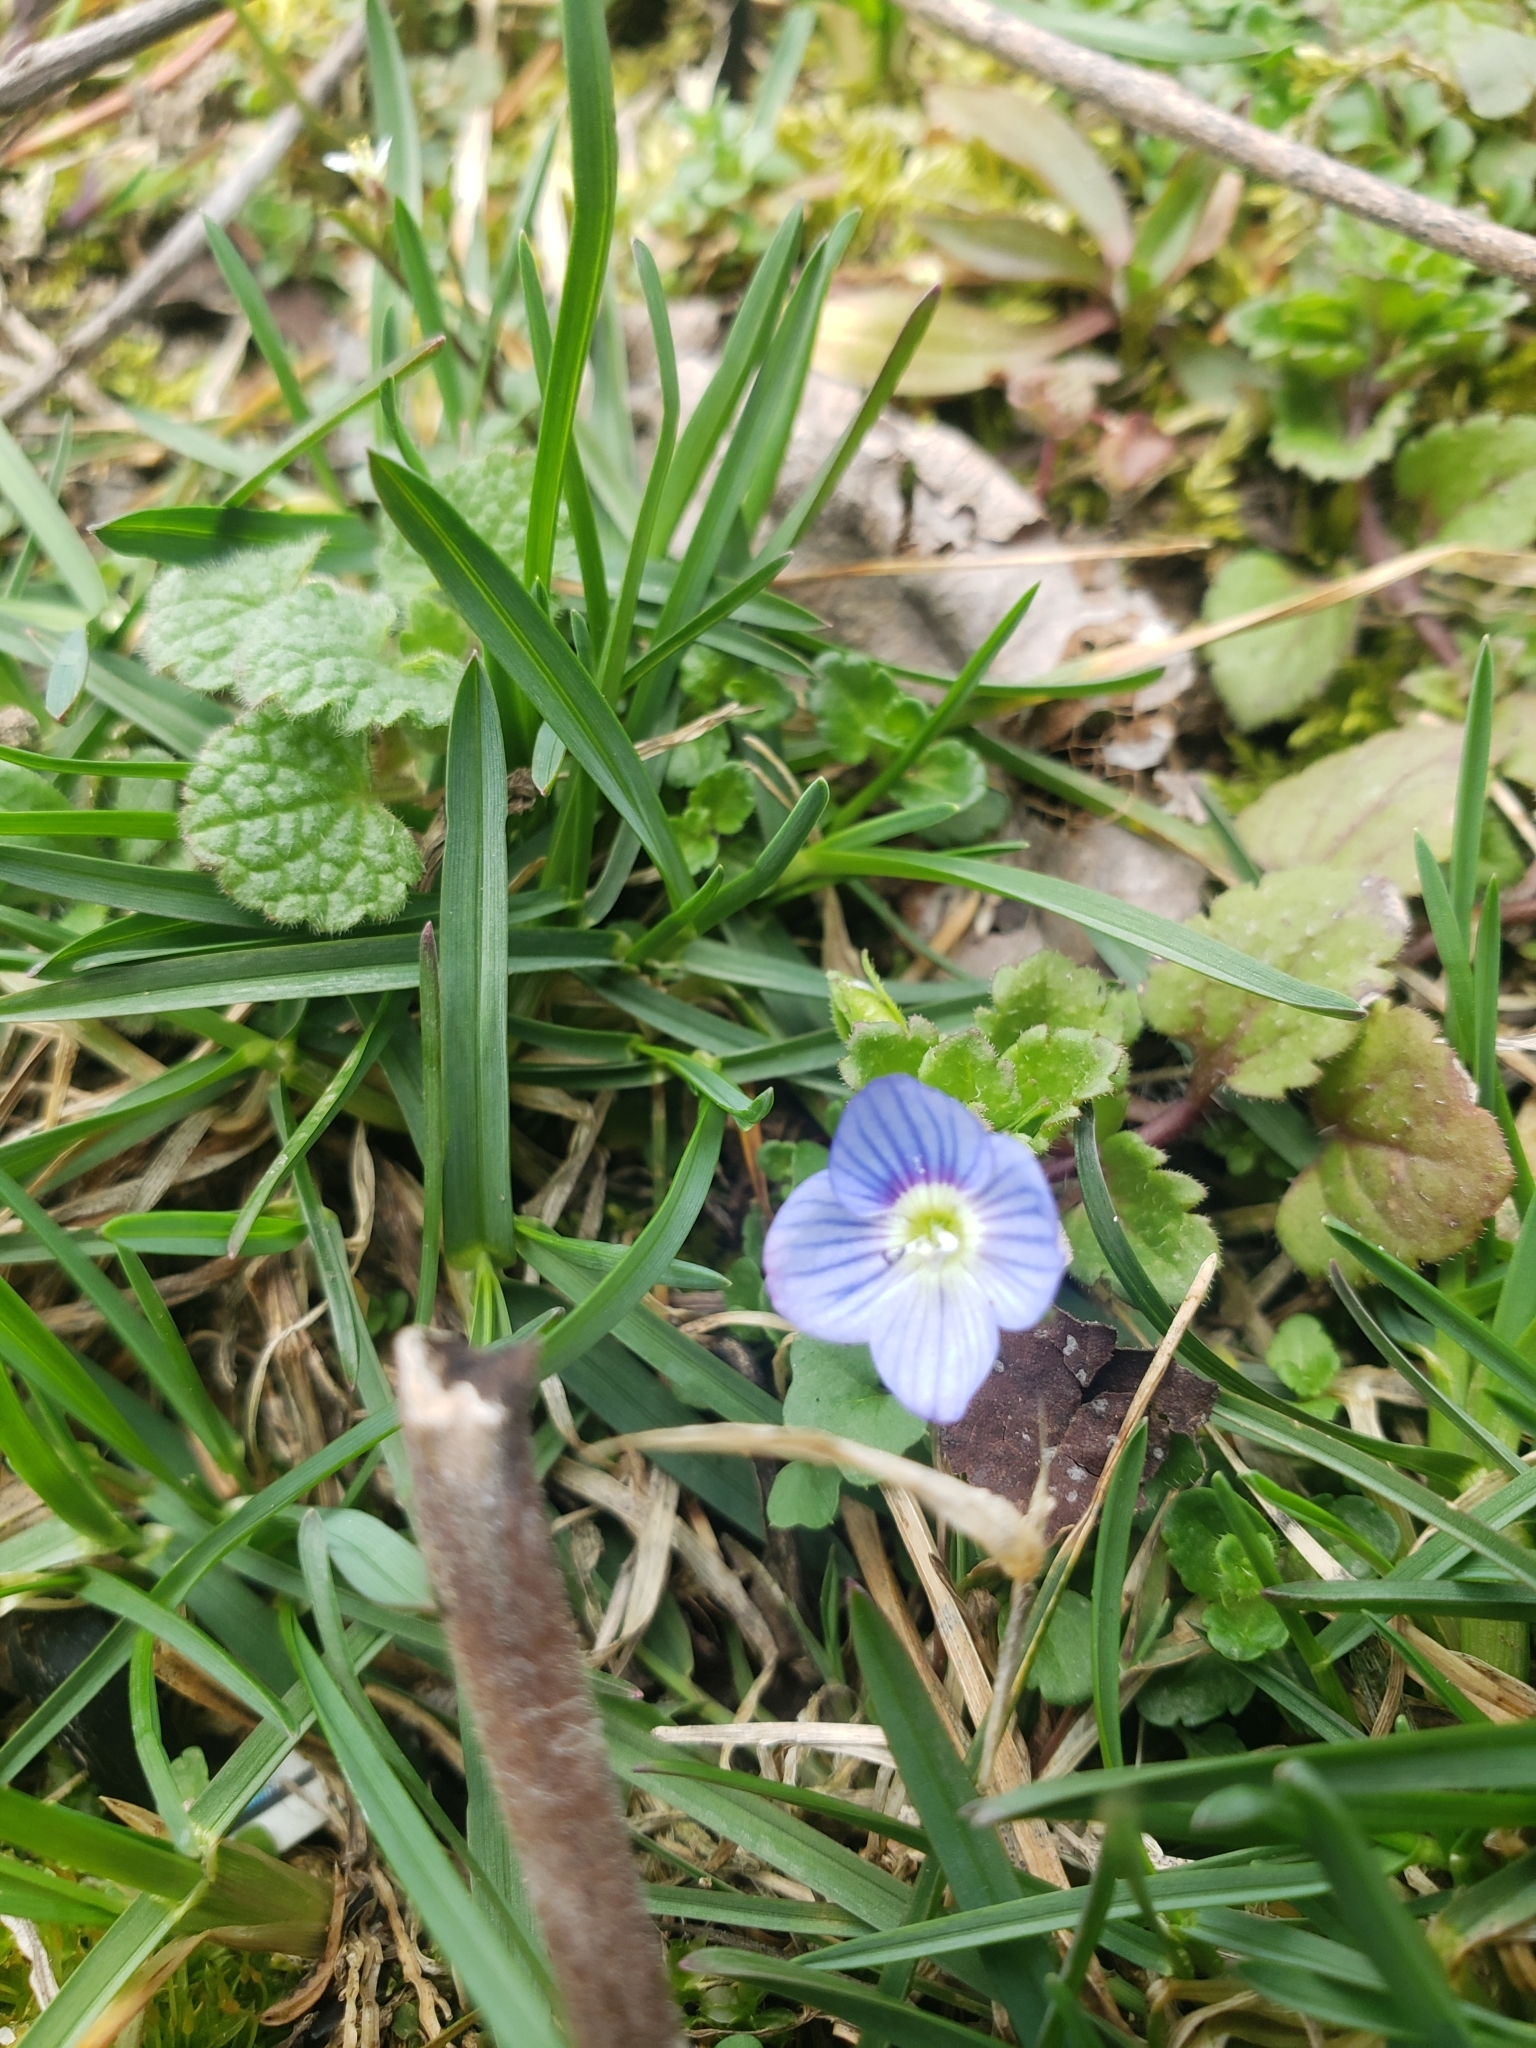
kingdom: Plantae
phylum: Tracheophyta
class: Magnoliopsida
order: Lamiales
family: Plantaginaceae
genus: Veronica
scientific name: Veronica persica
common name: Common field-speedwell
